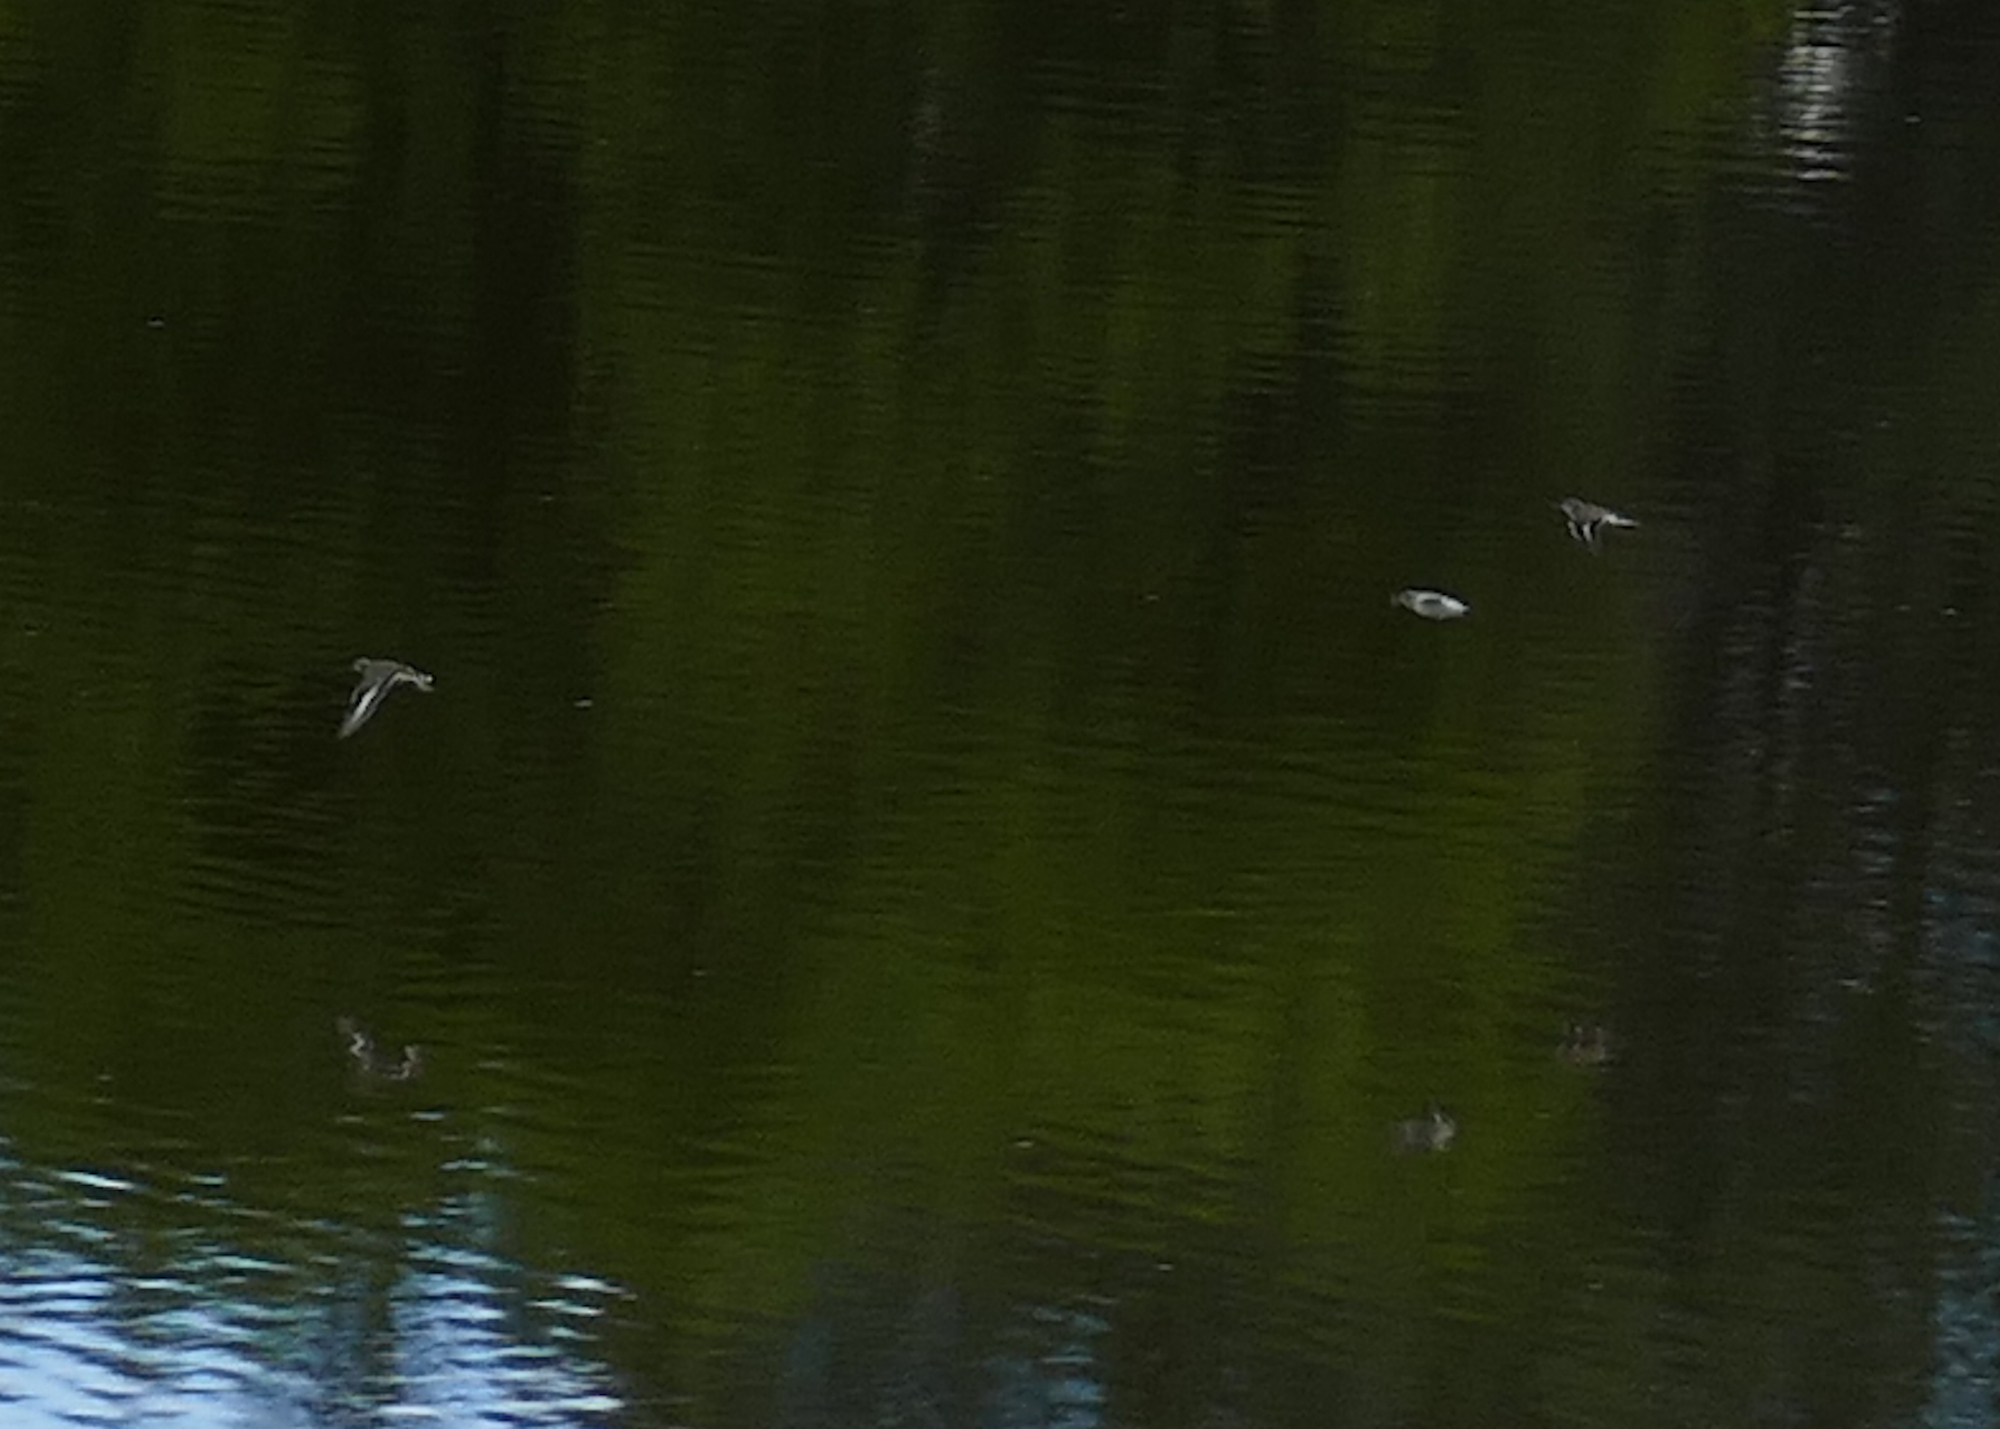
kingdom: Animalia
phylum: Chordata
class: Aves
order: Charadriiformes
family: Scolopacidae
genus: Actitis
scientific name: Actitis macularius
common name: Spotted sandpiper
